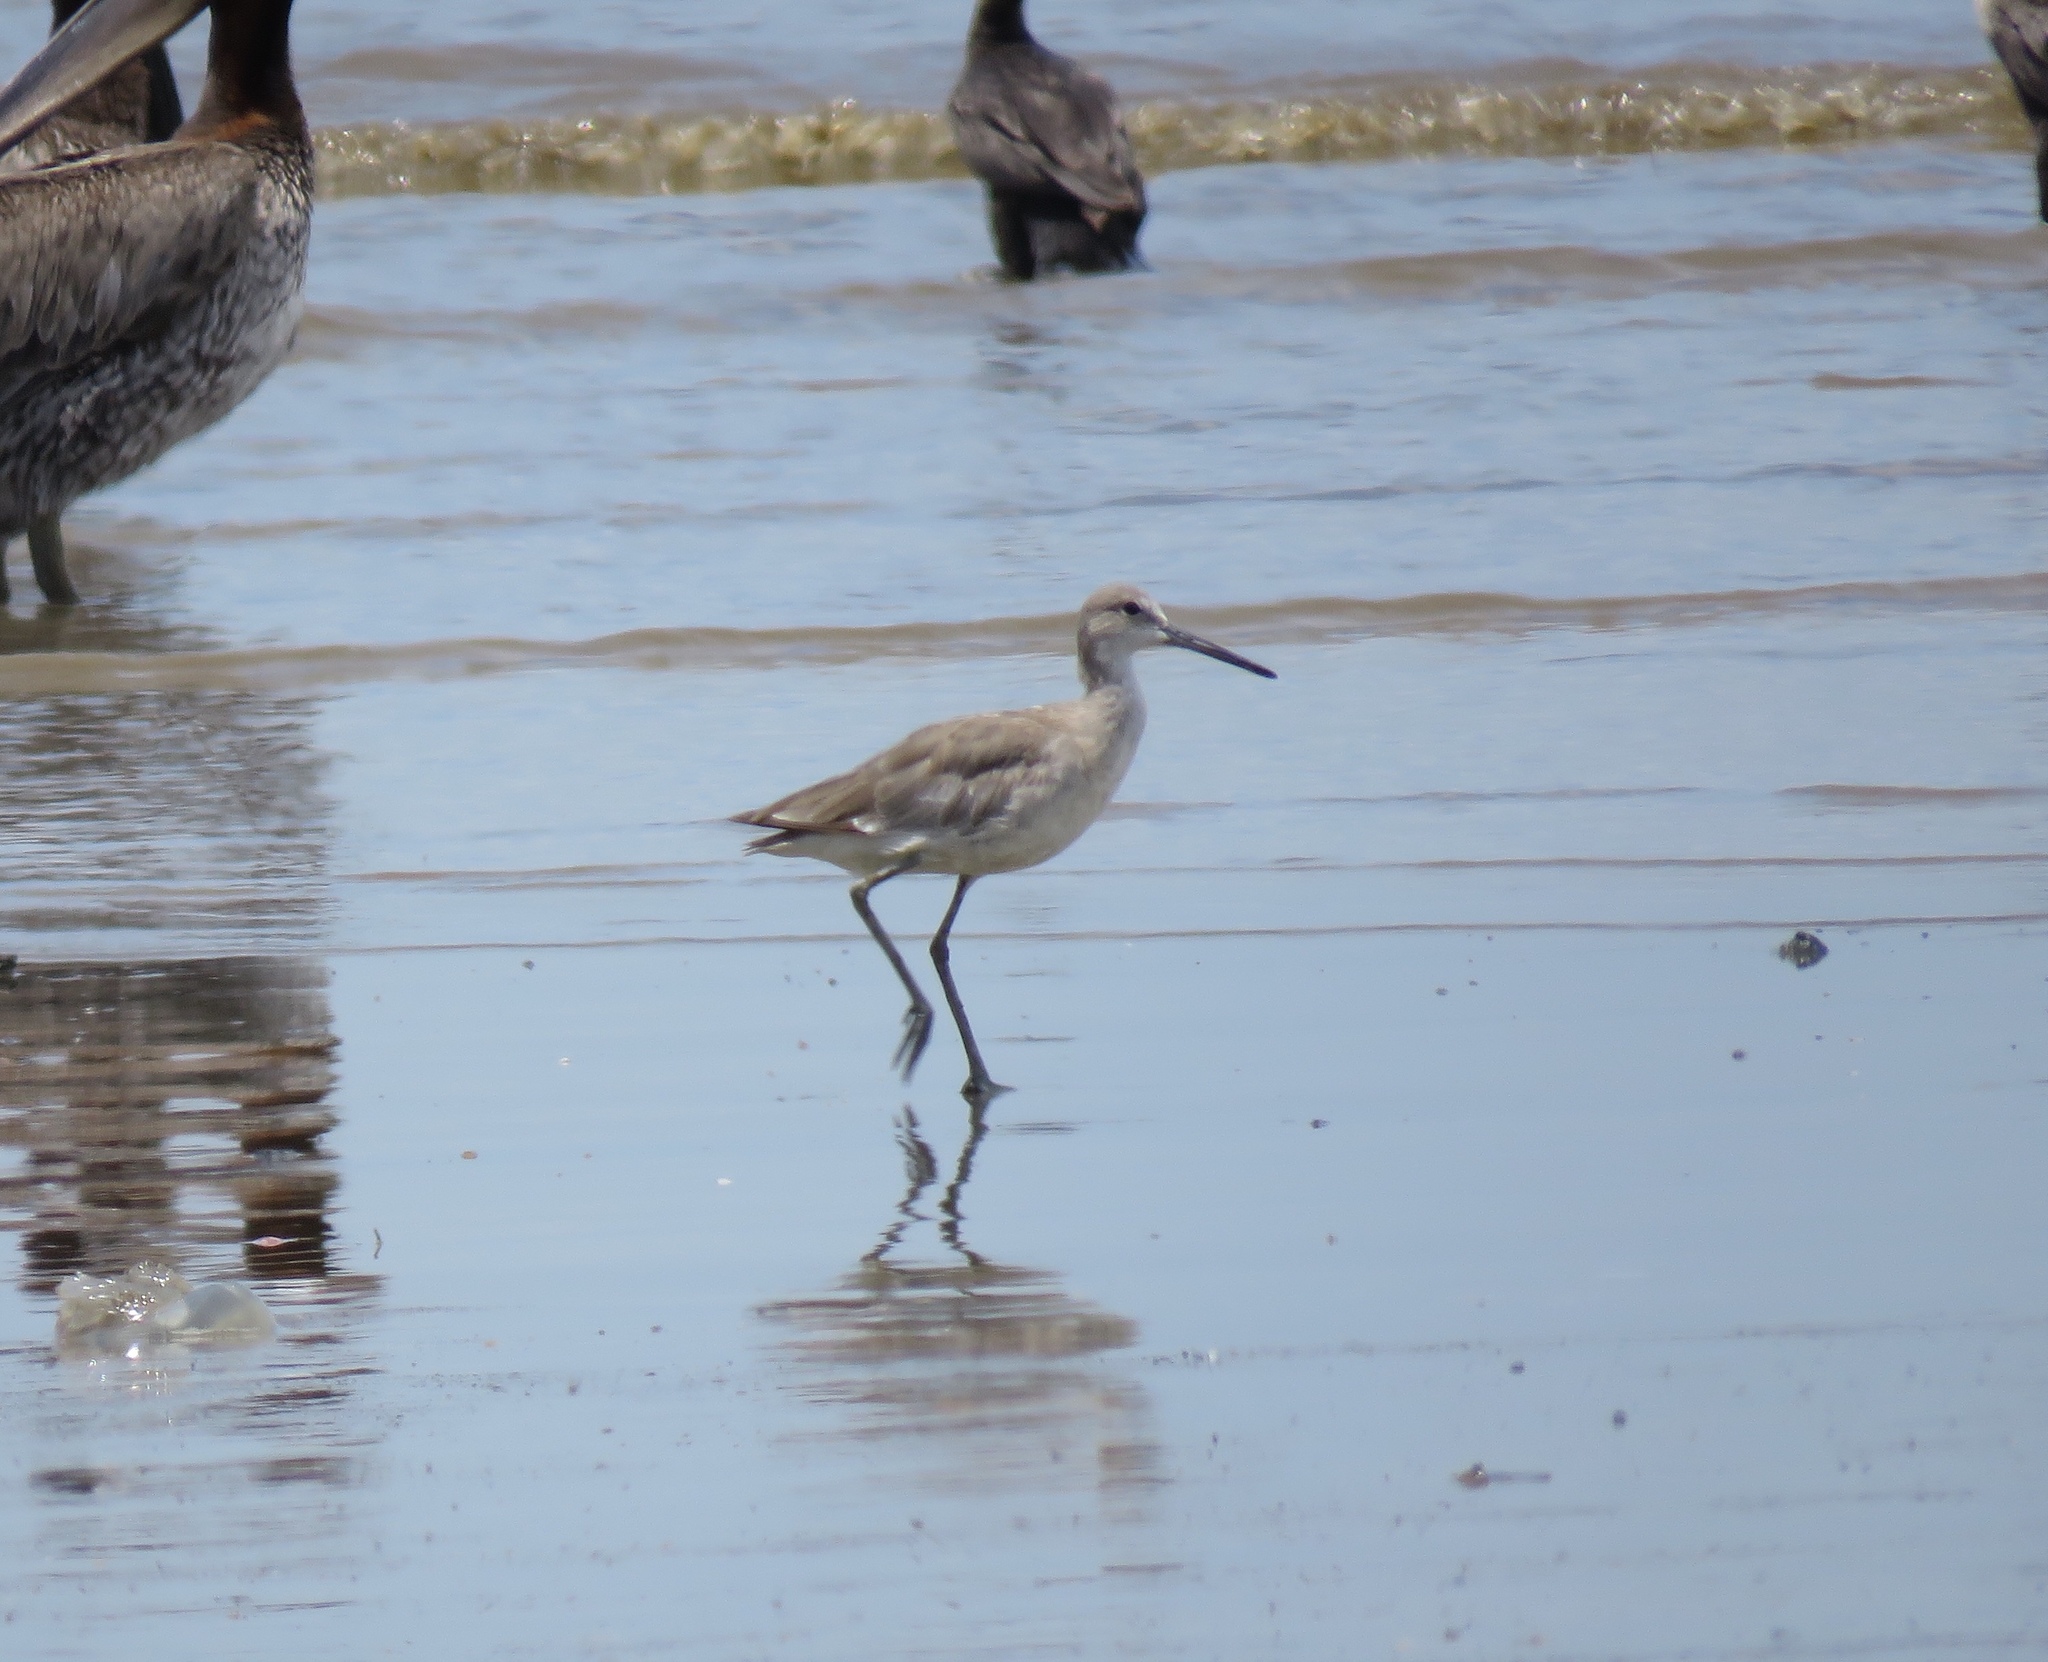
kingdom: Animalia
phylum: Chordata
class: Aves
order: Charadriiformes
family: Scolopacidae
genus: Tringa
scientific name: Tringa semipalmata
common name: Willet
